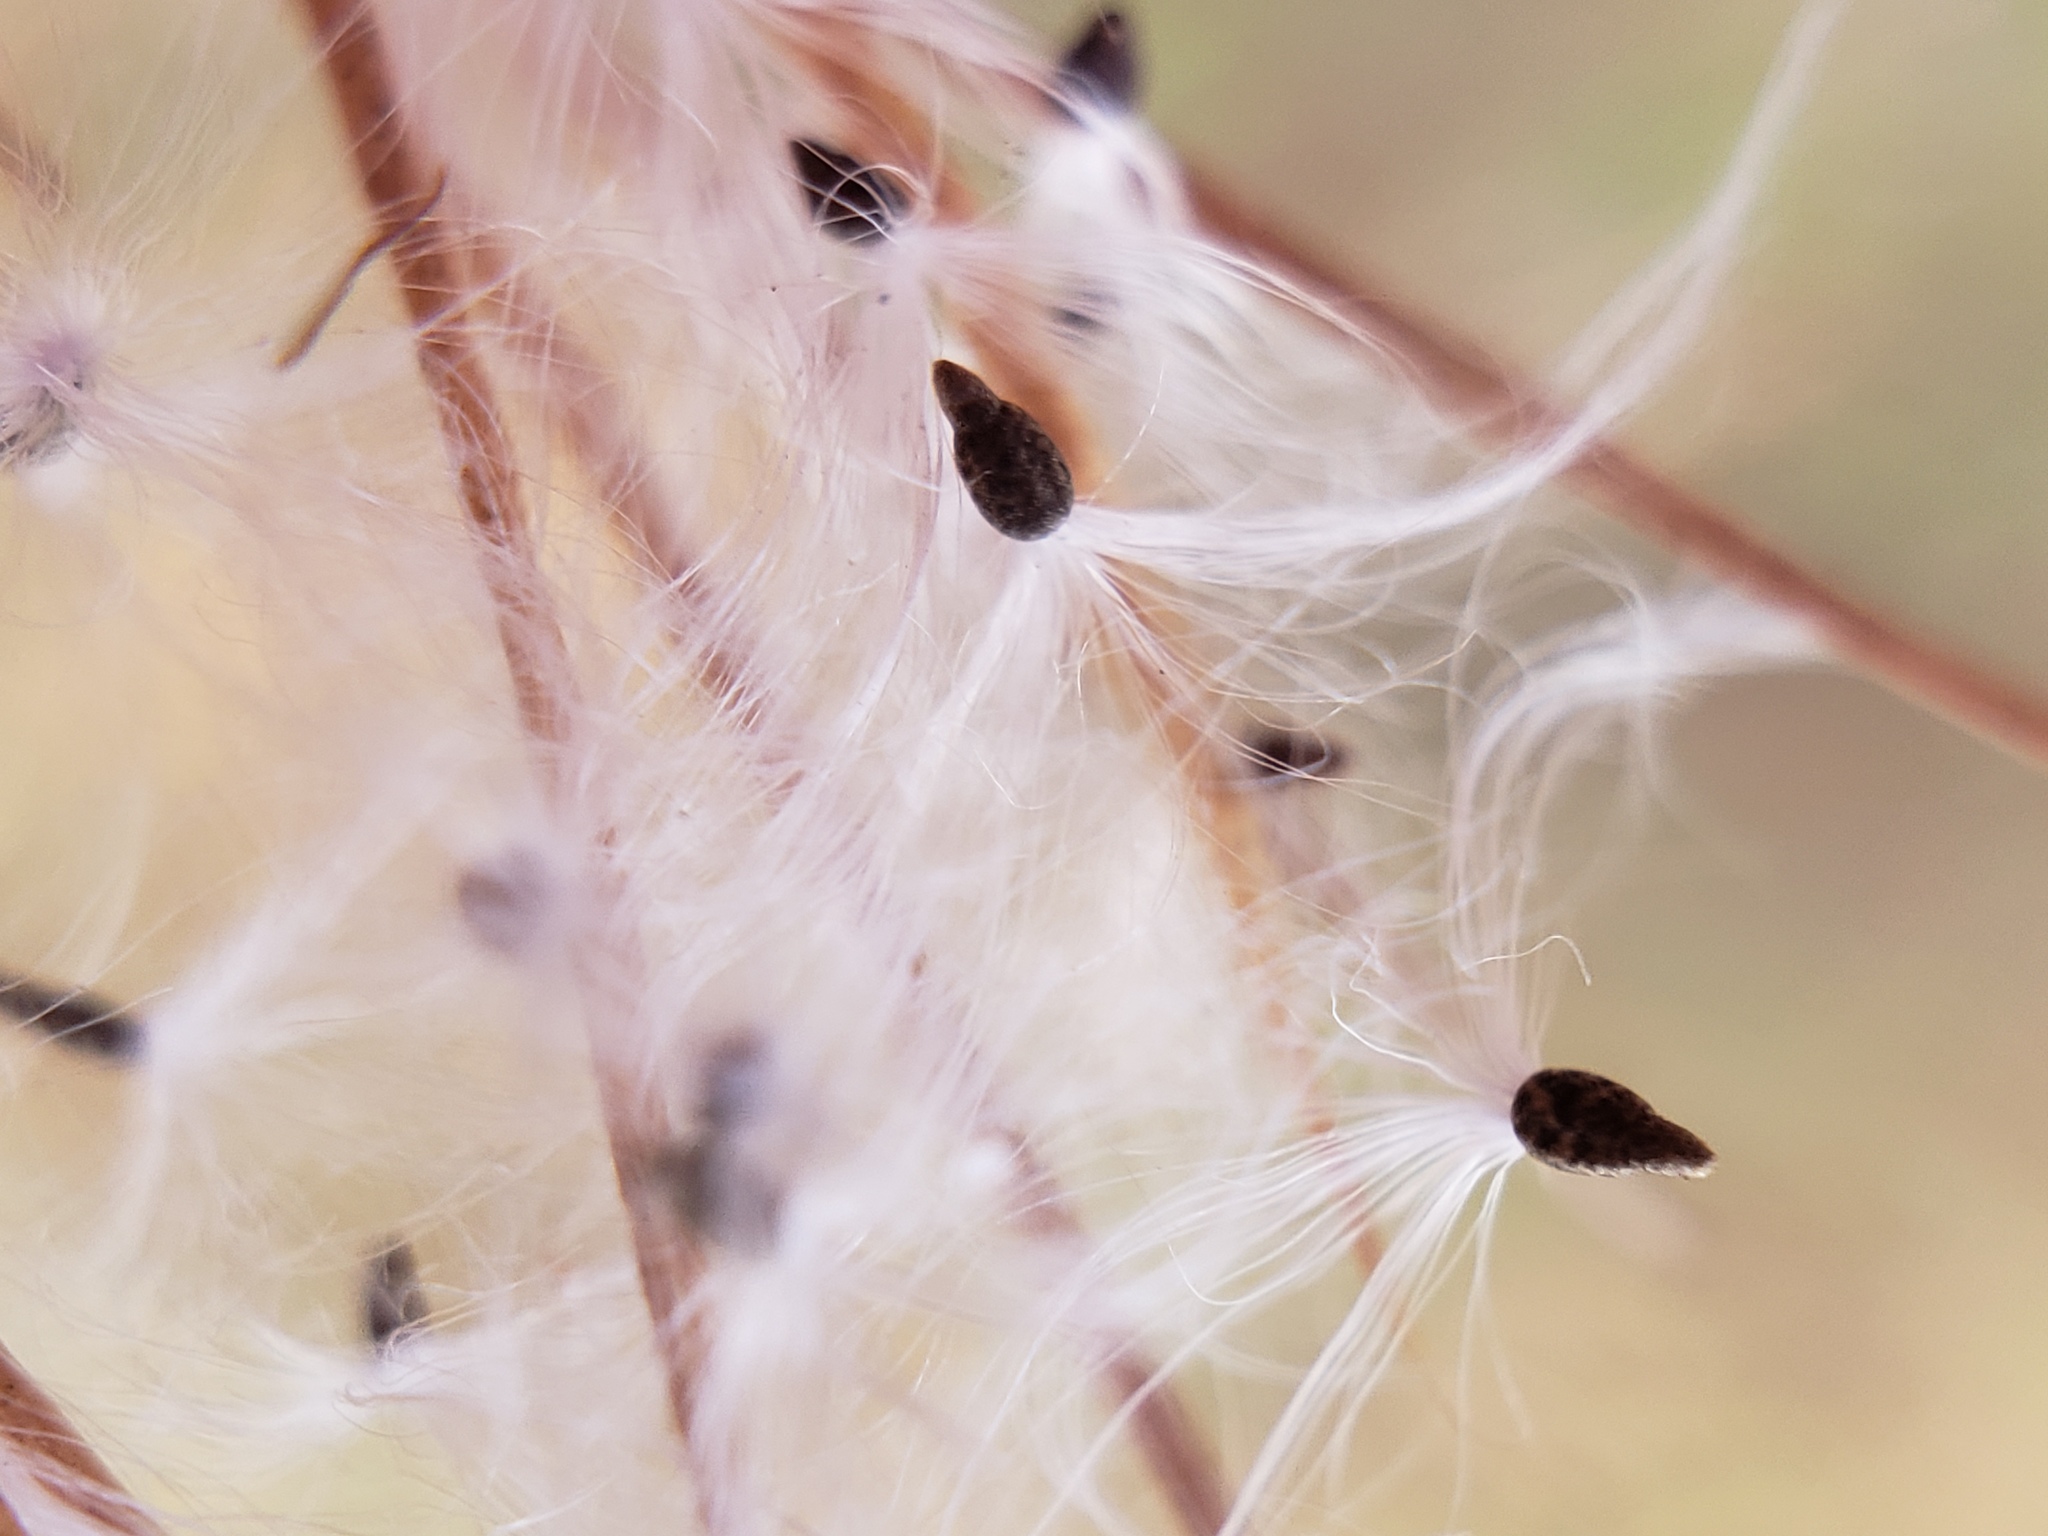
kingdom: Plantae
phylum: Tracheophyta
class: Magnoliopsida
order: Myrtales
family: Onagraceae
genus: Epilobium
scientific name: Epilobium brachycarpum
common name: Annual willowherb
